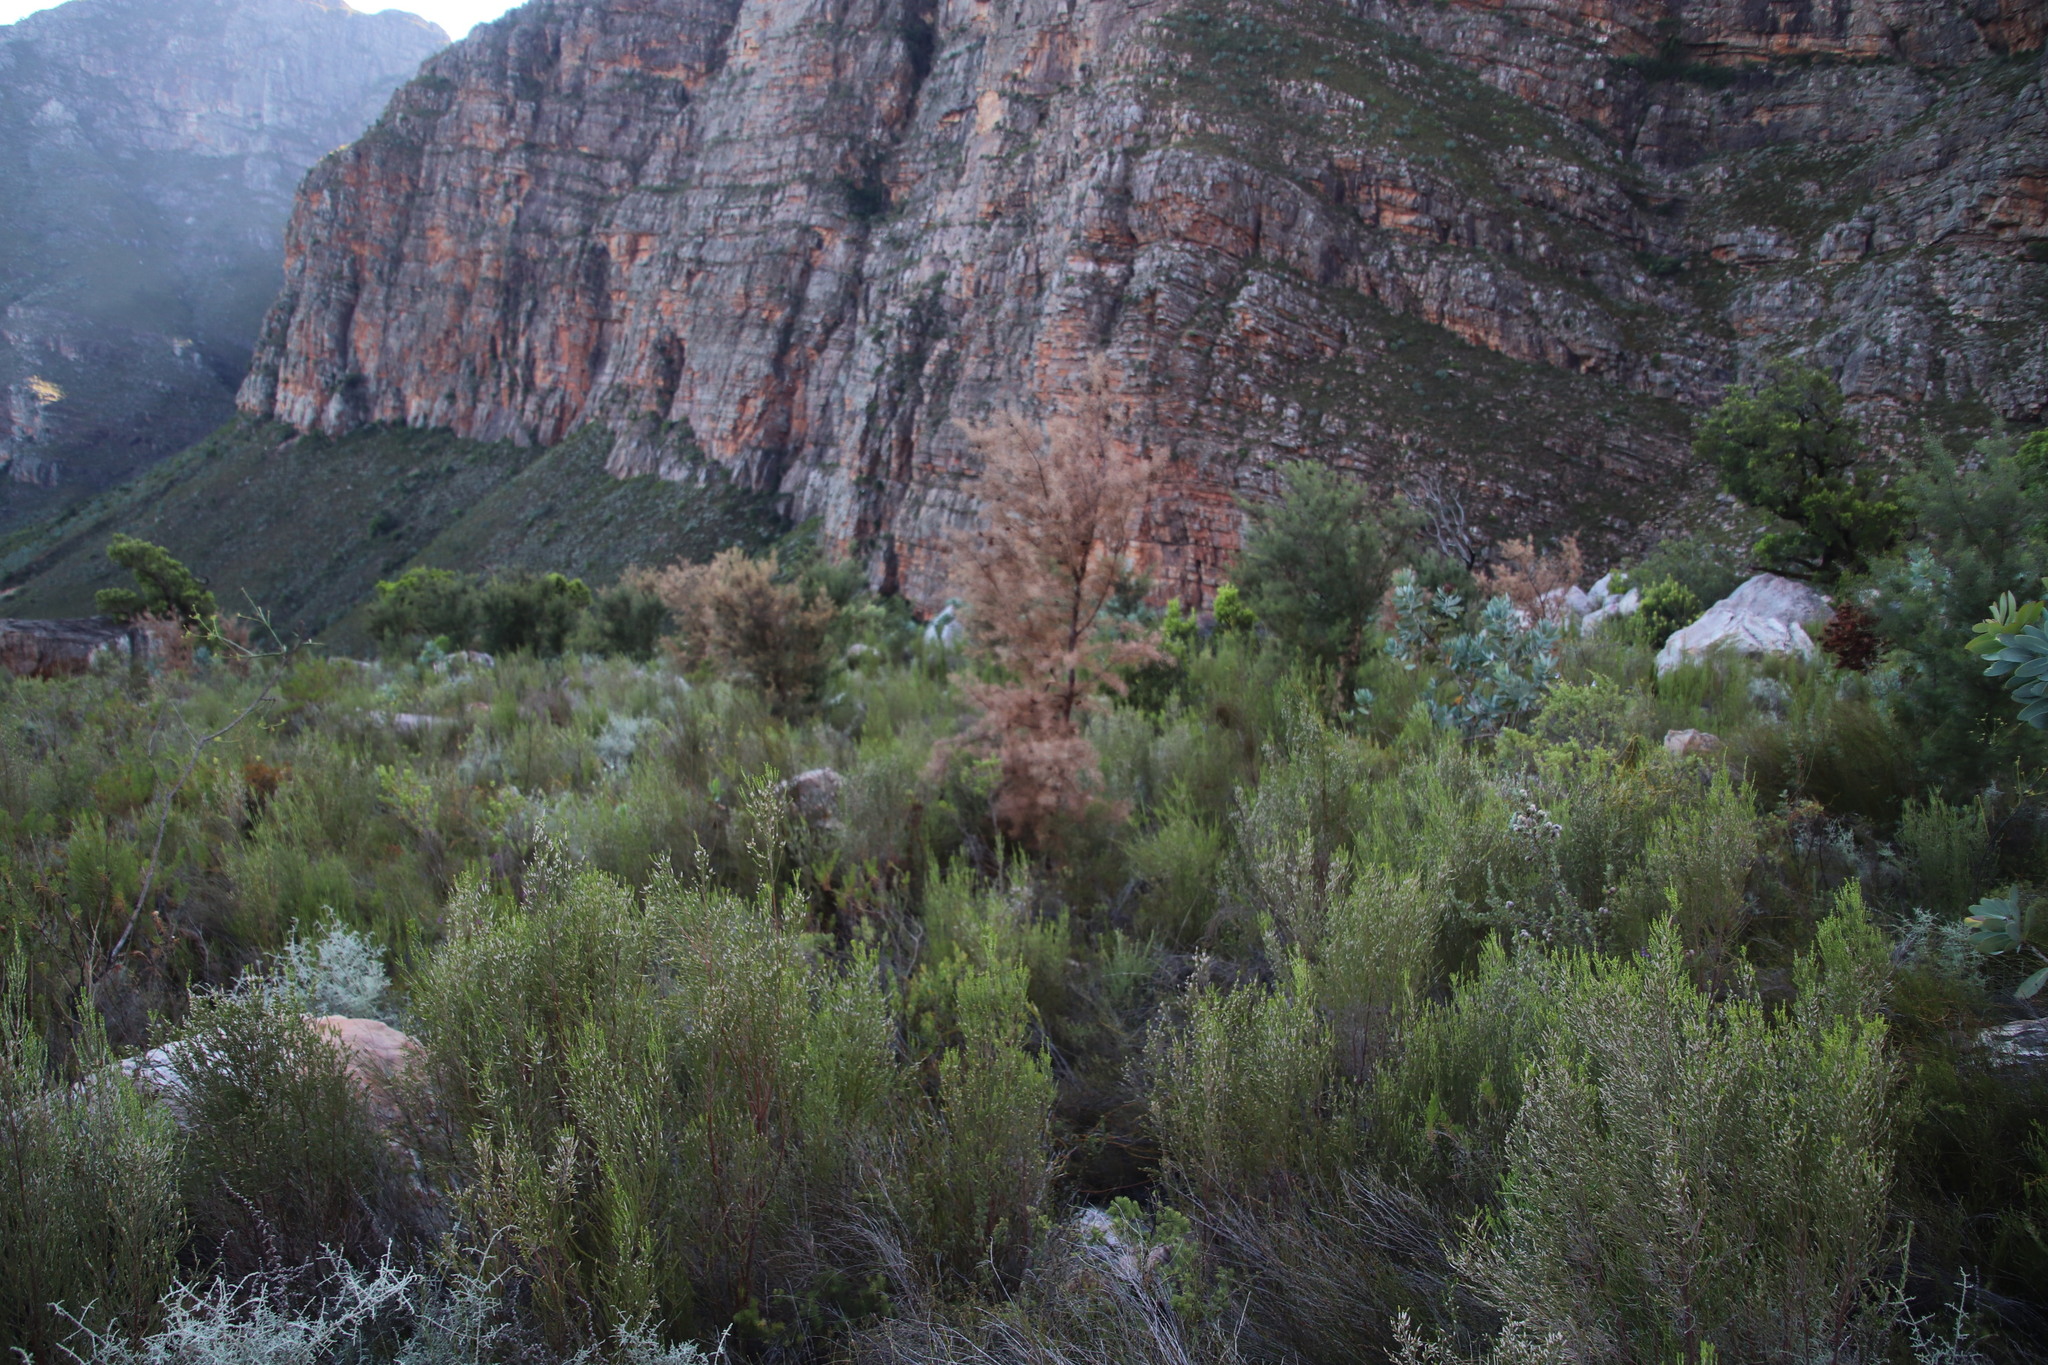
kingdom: Plantae
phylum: Tracheophyta
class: Magnoliopsida
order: Proteales
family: Proteaceae
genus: Hakea
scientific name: Hakea sericea
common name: Needle bush
